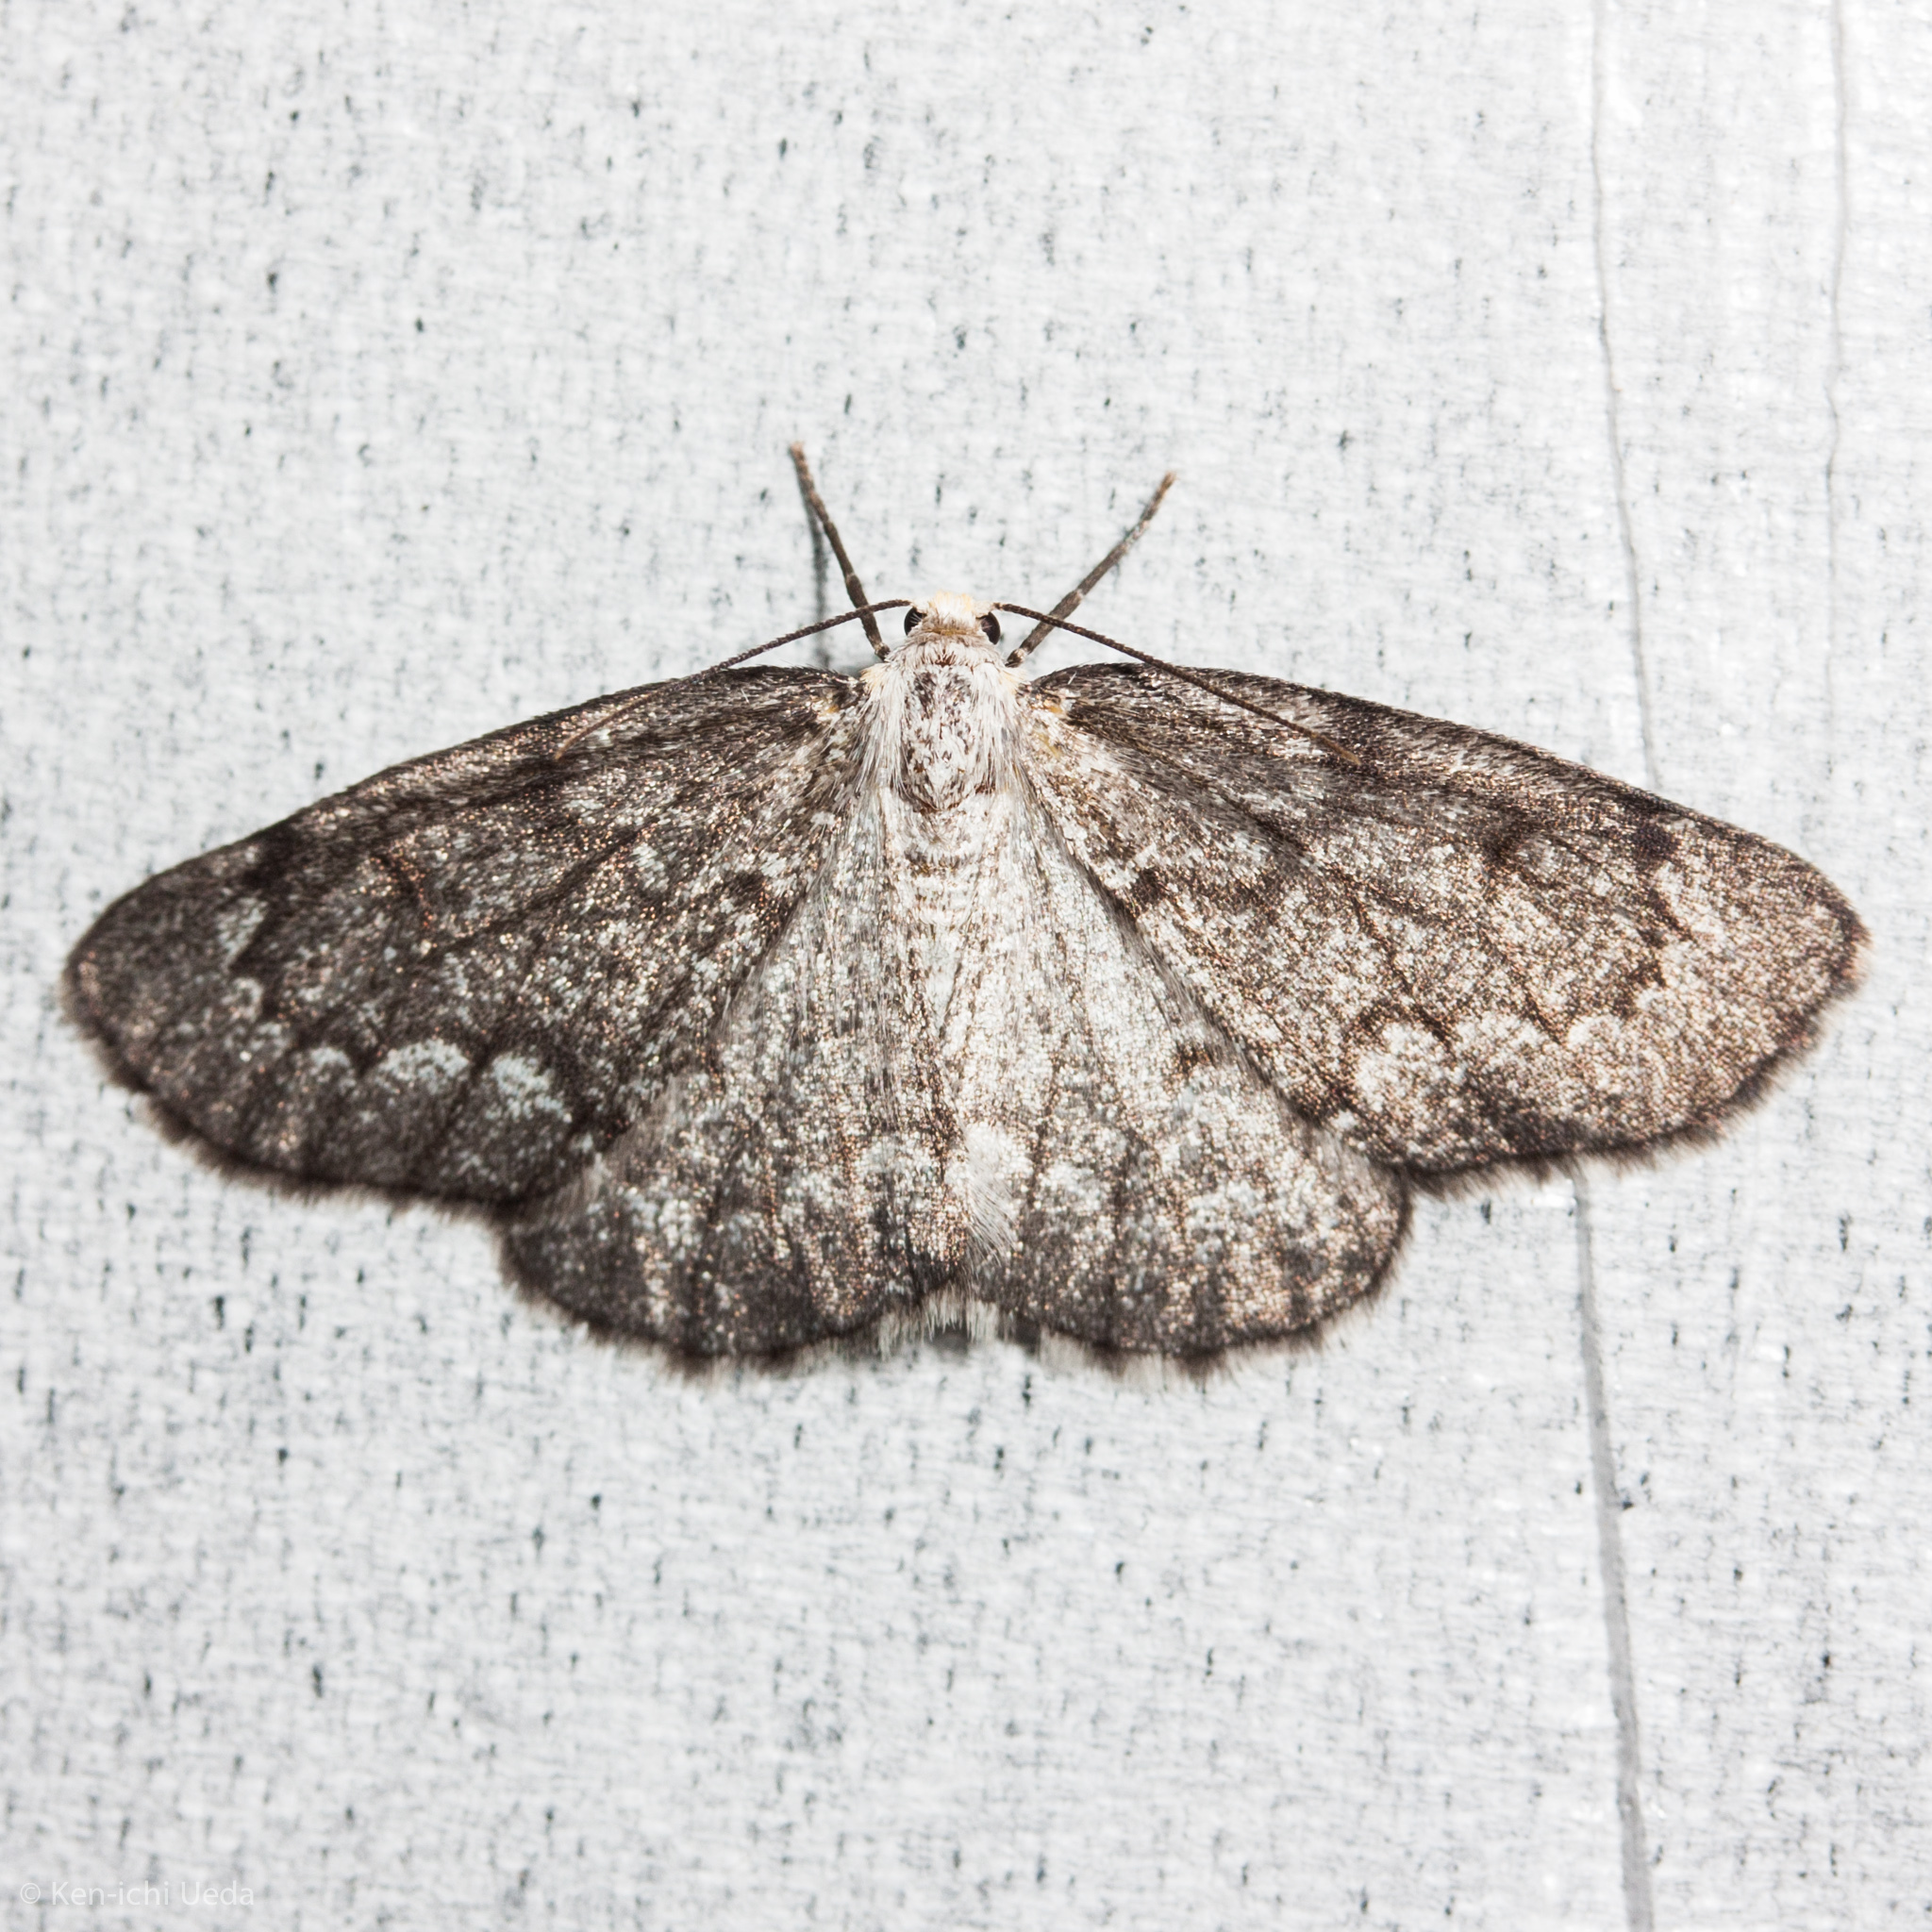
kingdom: Animalia
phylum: Arthropoda
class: Insecta
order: Lepidoptera
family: Geometridae
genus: Nepytia
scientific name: Nepytia canosaria
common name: False hemlock looper
